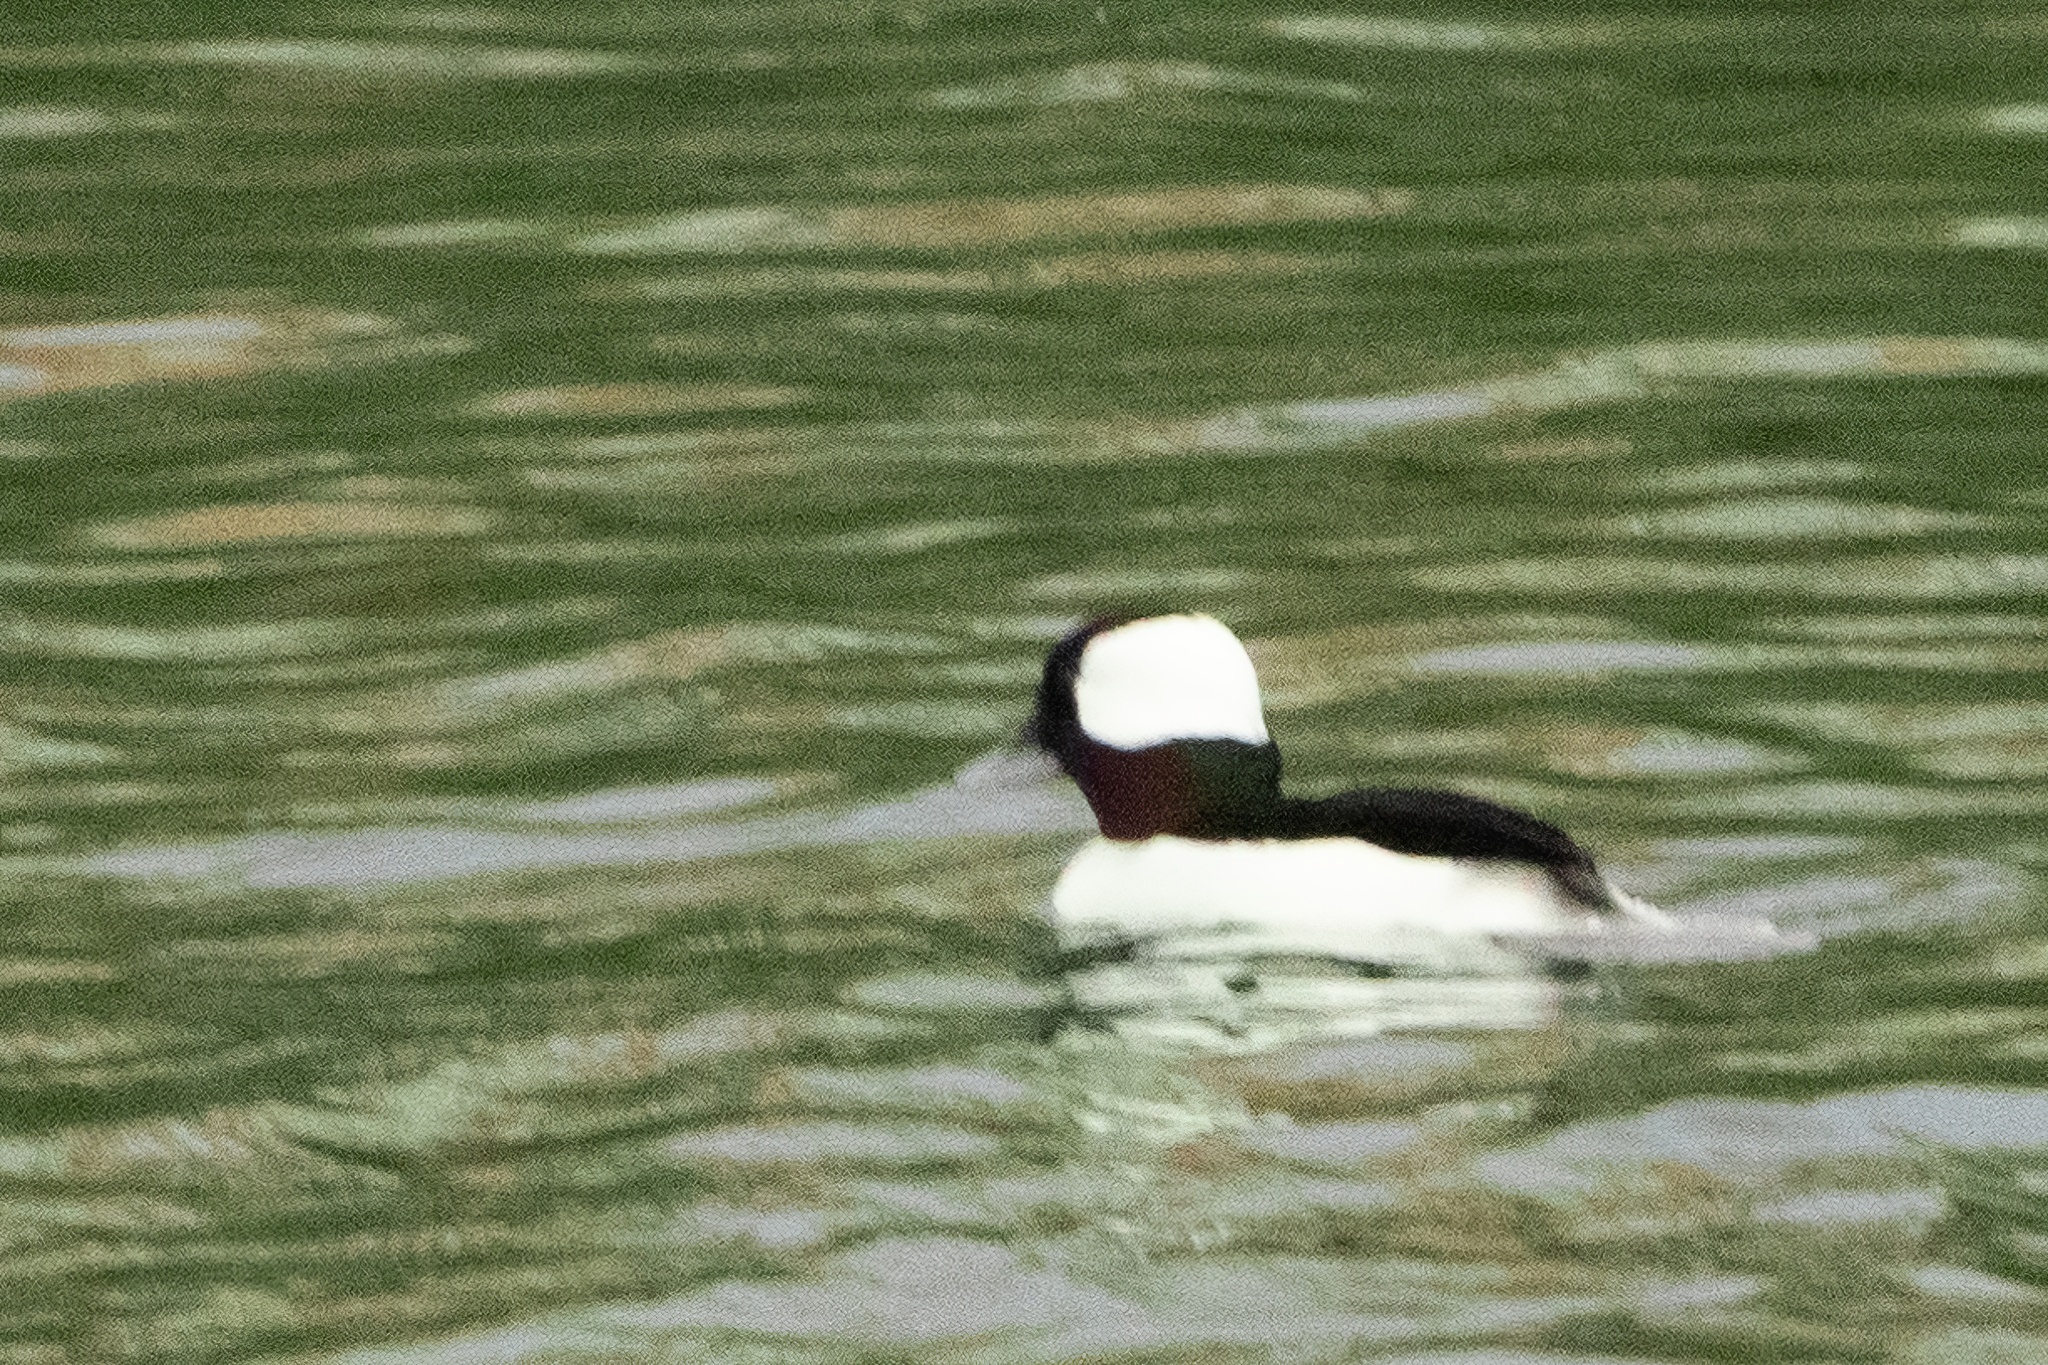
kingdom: Animalia
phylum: Chordata
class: Aves
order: Anseriformes
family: Anatidae
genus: Bucephala
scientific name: Bucephala albeola
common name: Bufflehead
